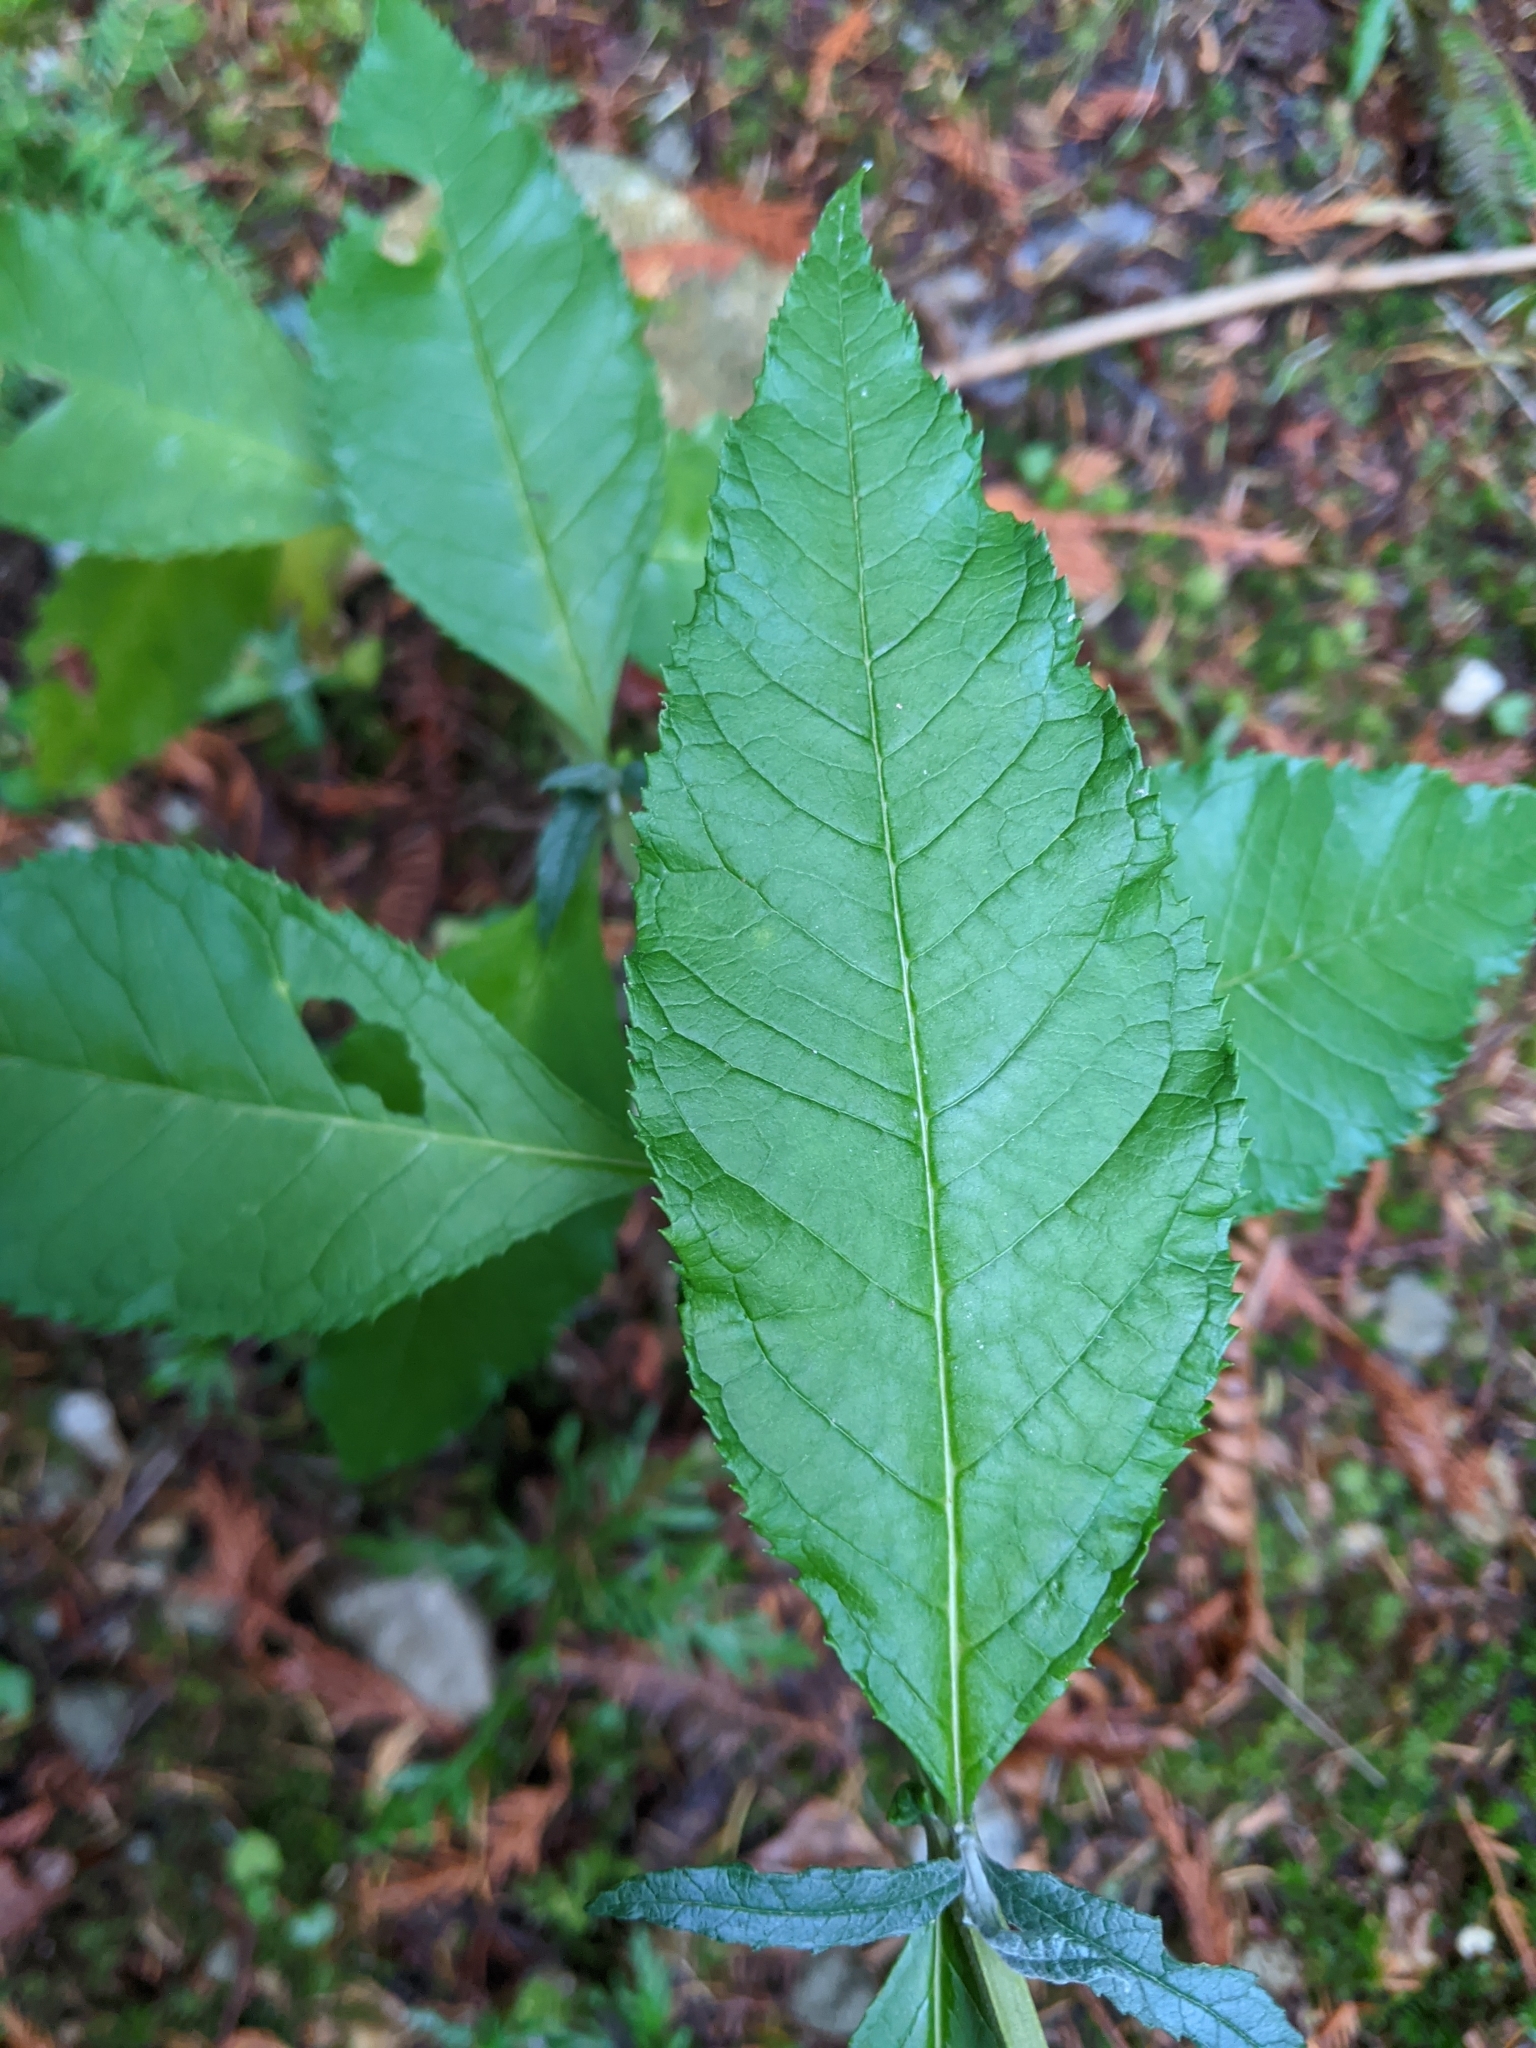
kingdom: Plantae
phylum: Tracheophyta
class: Magnoliopsida
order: Lamiales
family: Scrophulariaceae
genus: Buddleja
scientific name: Buddleja davidii
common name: Butterfly-bush
